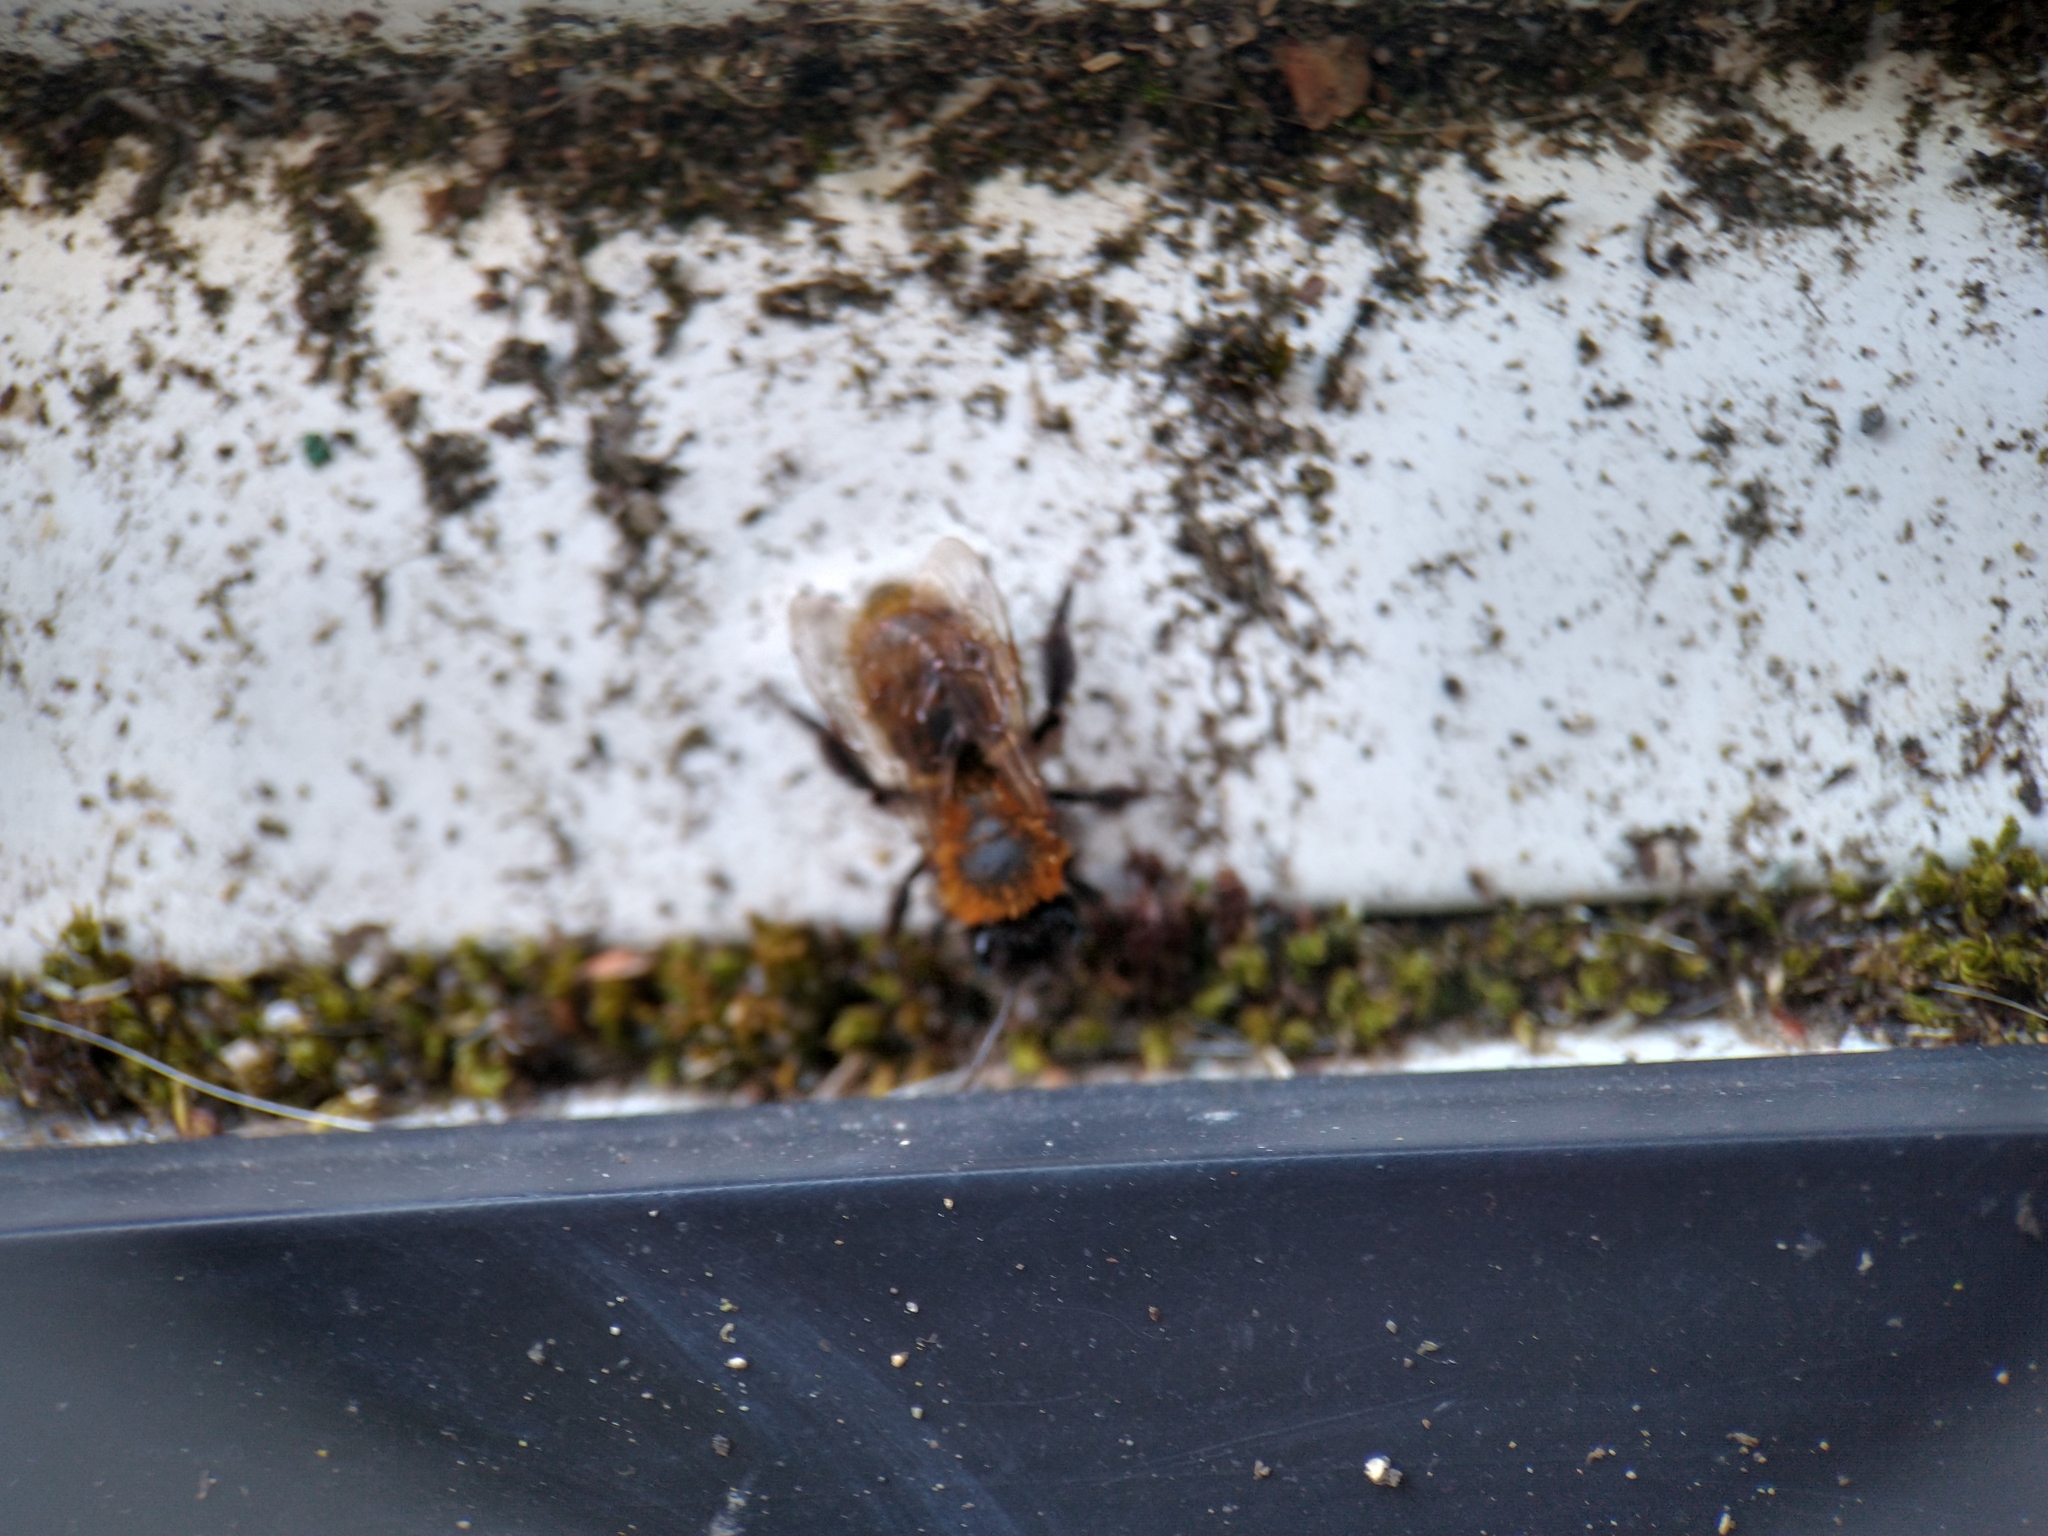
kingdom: Animalia
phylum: Arthropoda
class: Insecta
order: Hymenoptera
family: Andrenidae
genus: Andrena
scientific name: Andrena fulva
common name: Tawny mining bee
